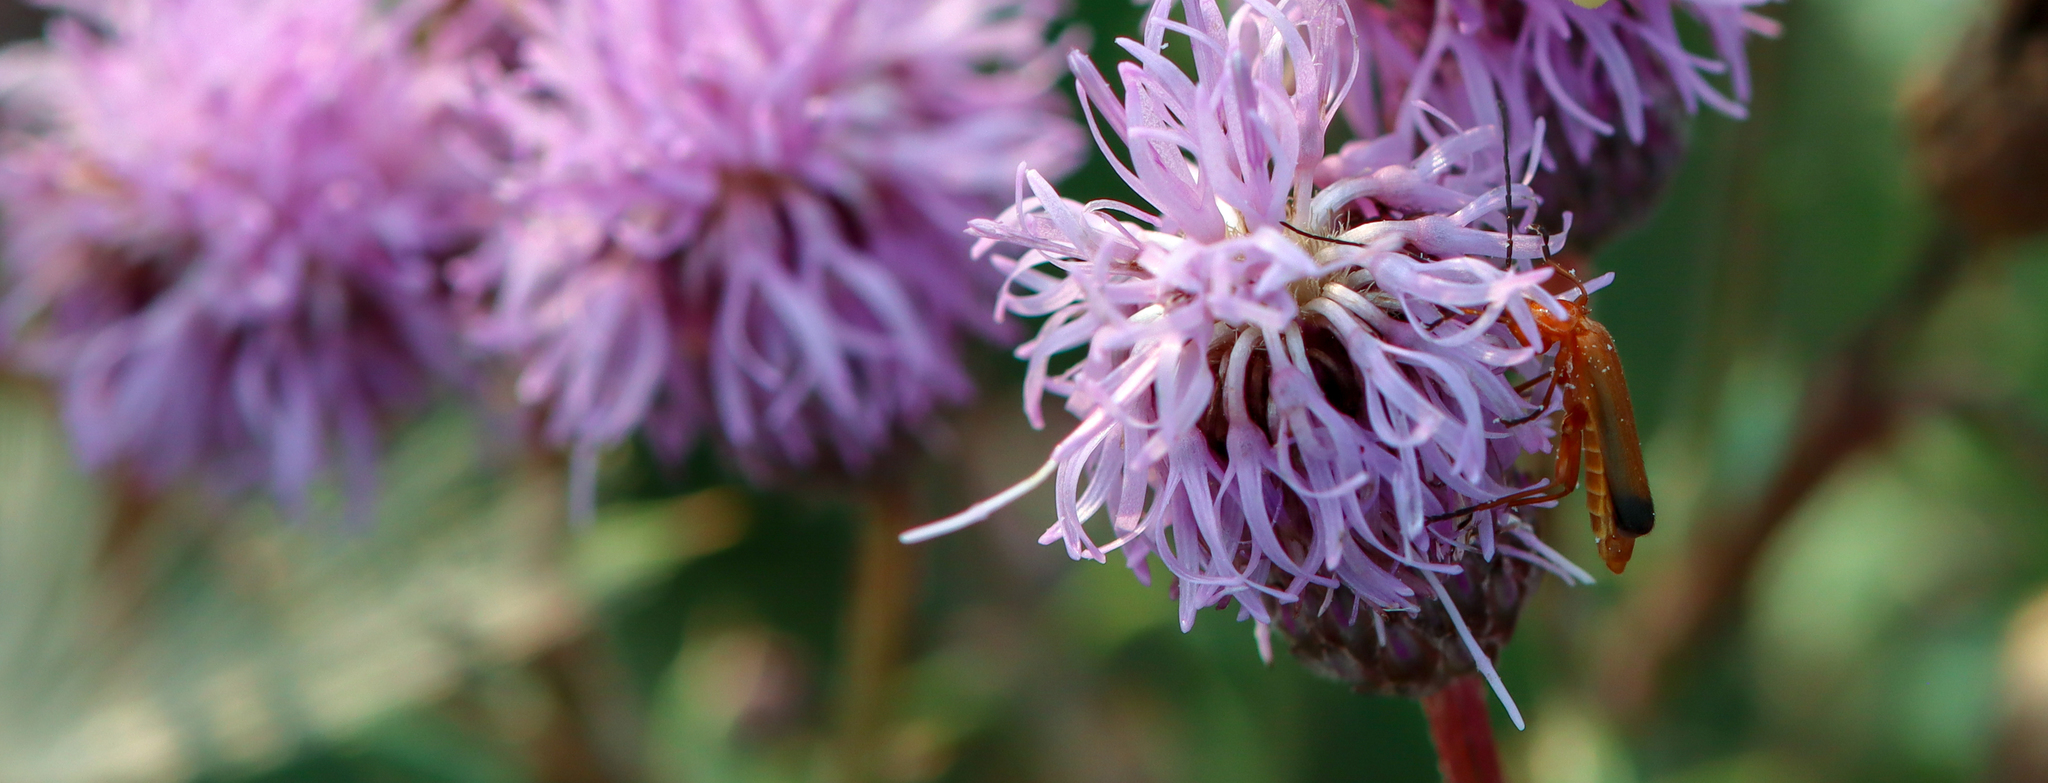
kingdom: Animalia
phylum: Arthropoda
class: Insecta
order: Coleoptera
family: Cantharidae
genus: Rhagonycha
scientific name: Rhagonycha fulva
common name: Common red soldier beetle
